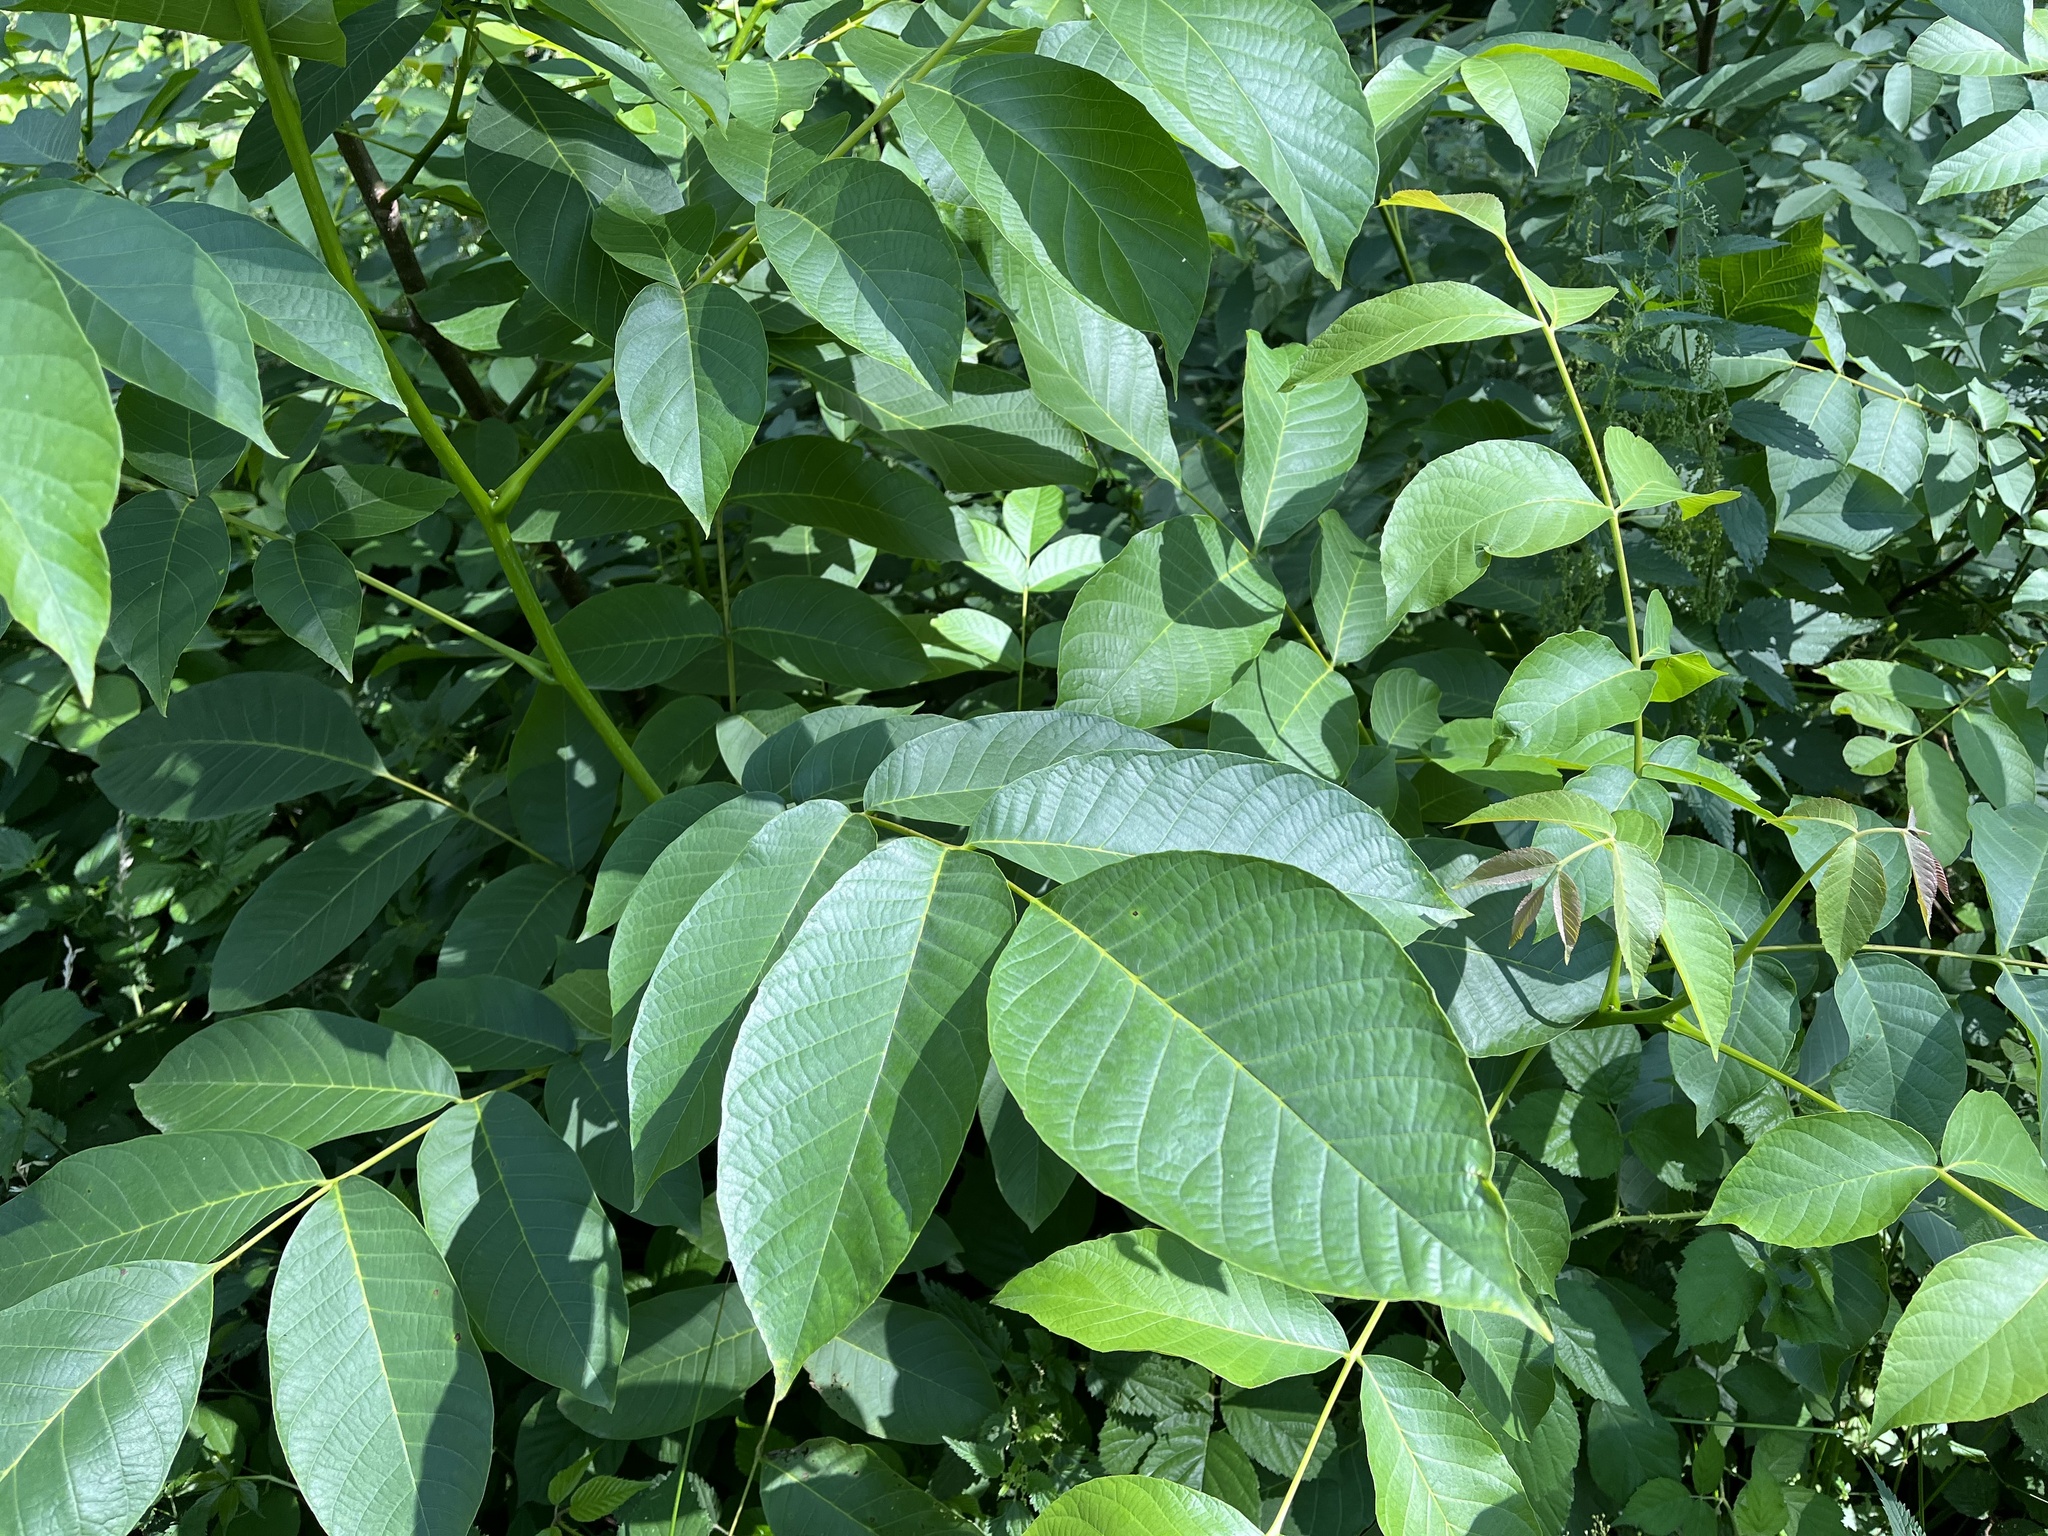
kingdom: Plantae
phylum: Tracheophyta
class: Magnoliopsida
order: Fagales
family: Juglandaceae
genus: Juglans
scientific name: Juglans regia
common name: Walnut
